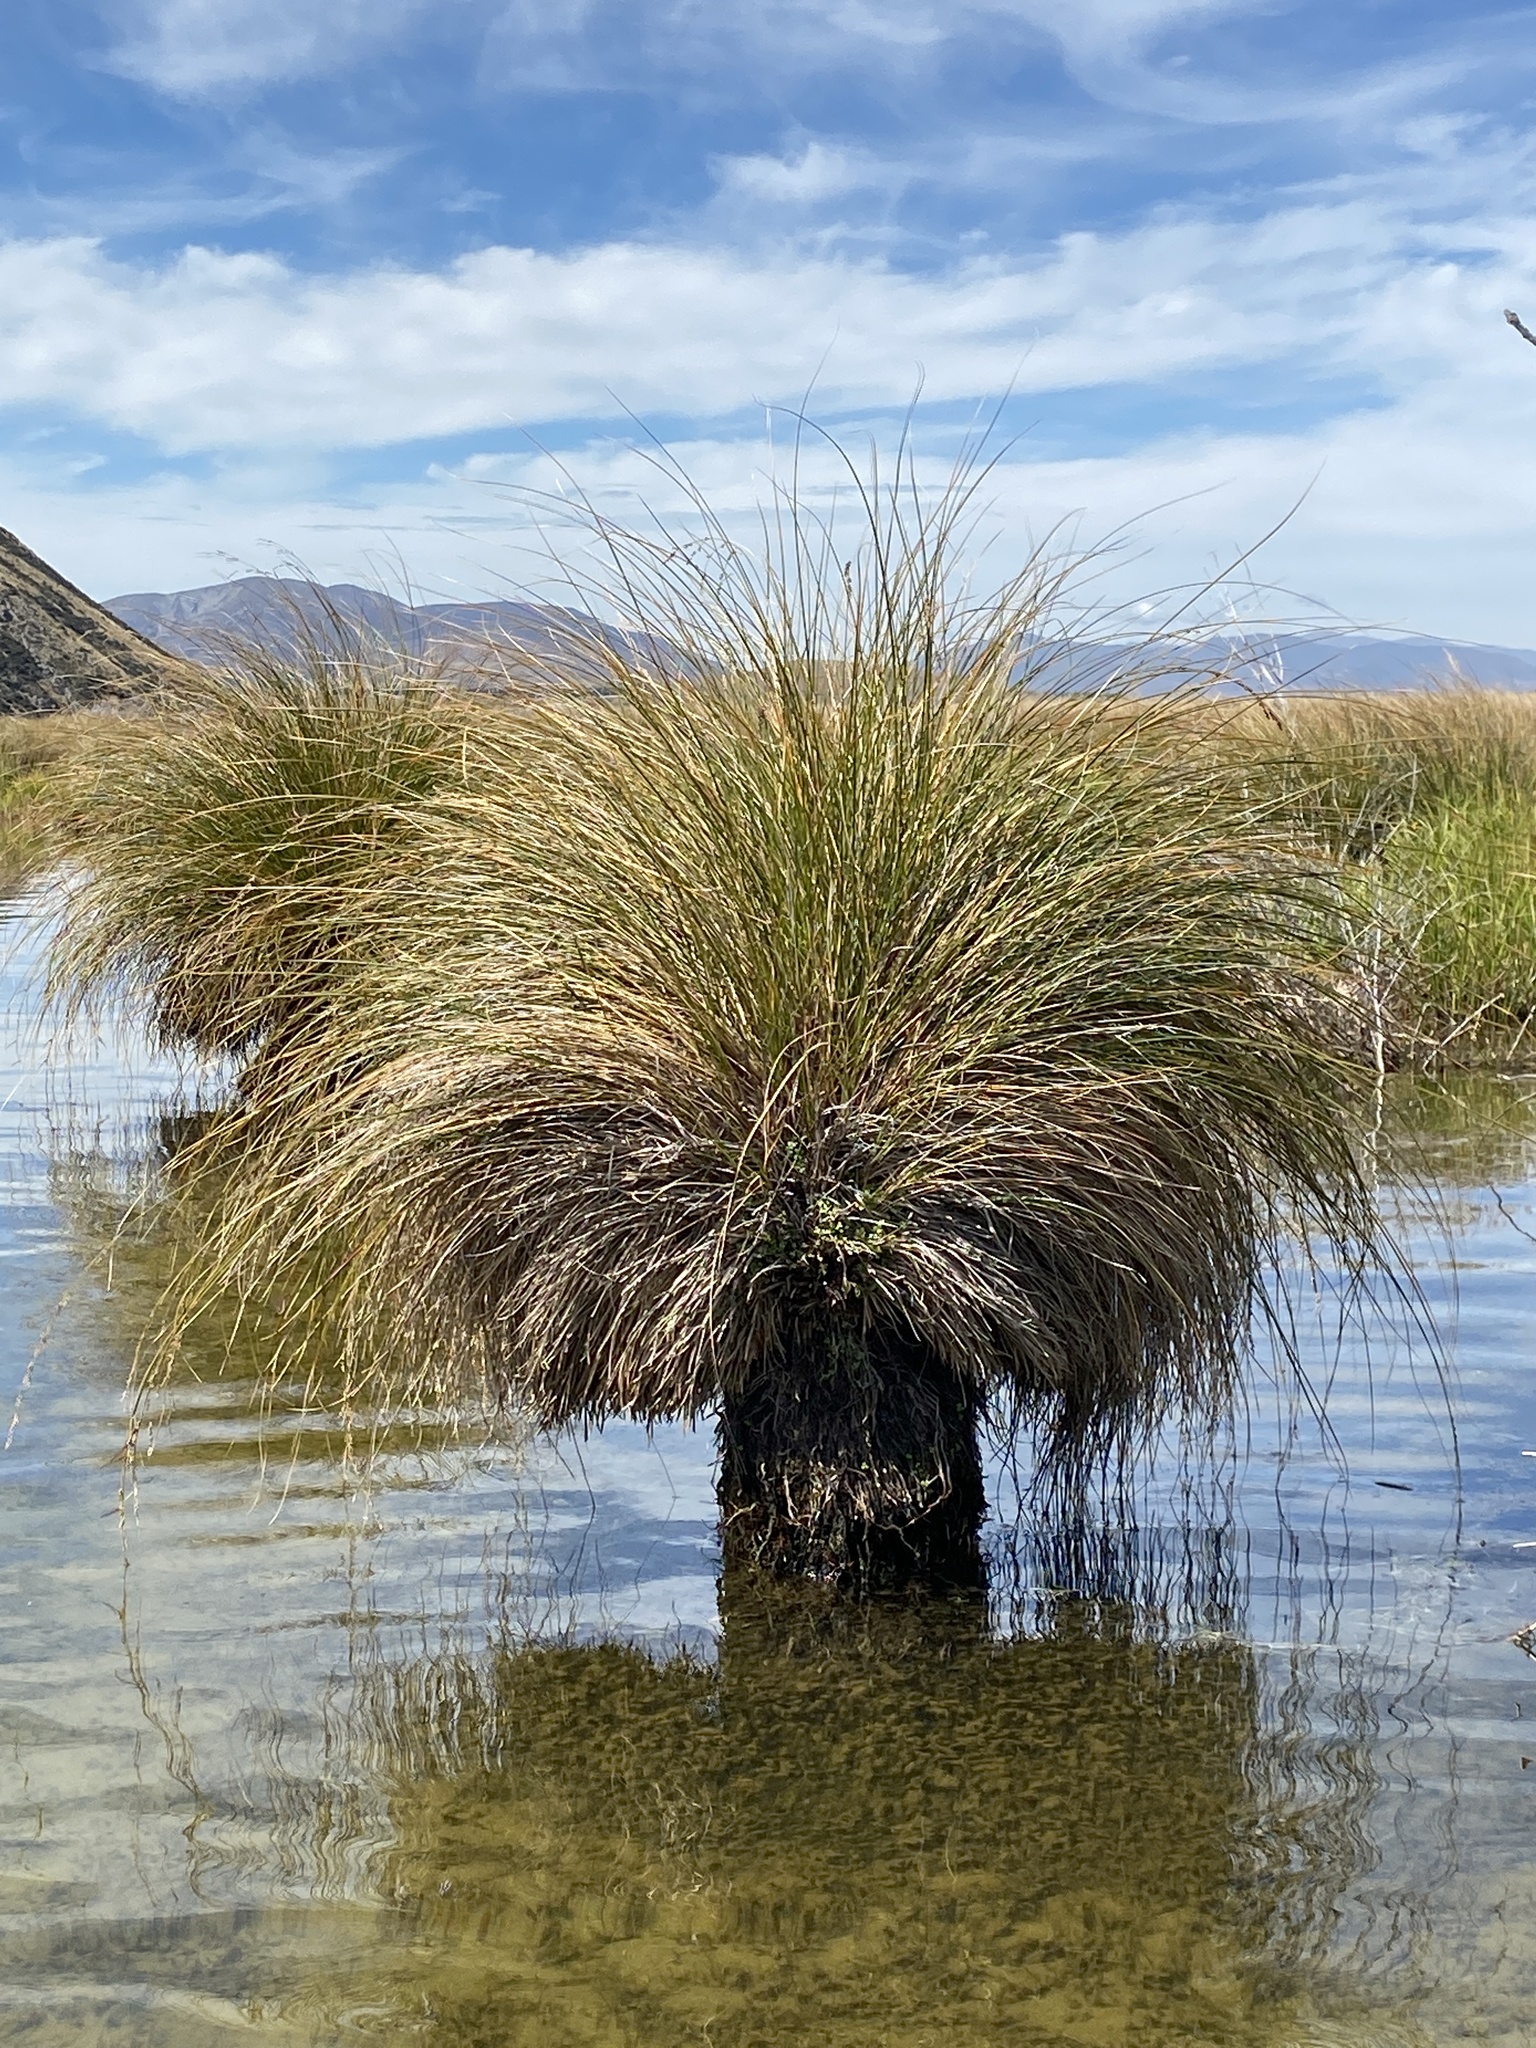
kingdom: Plantae
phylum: Tracheophyta
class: Liliopsida
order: Poales
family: Cyperaceae
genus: Carex
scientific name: Carex secta
